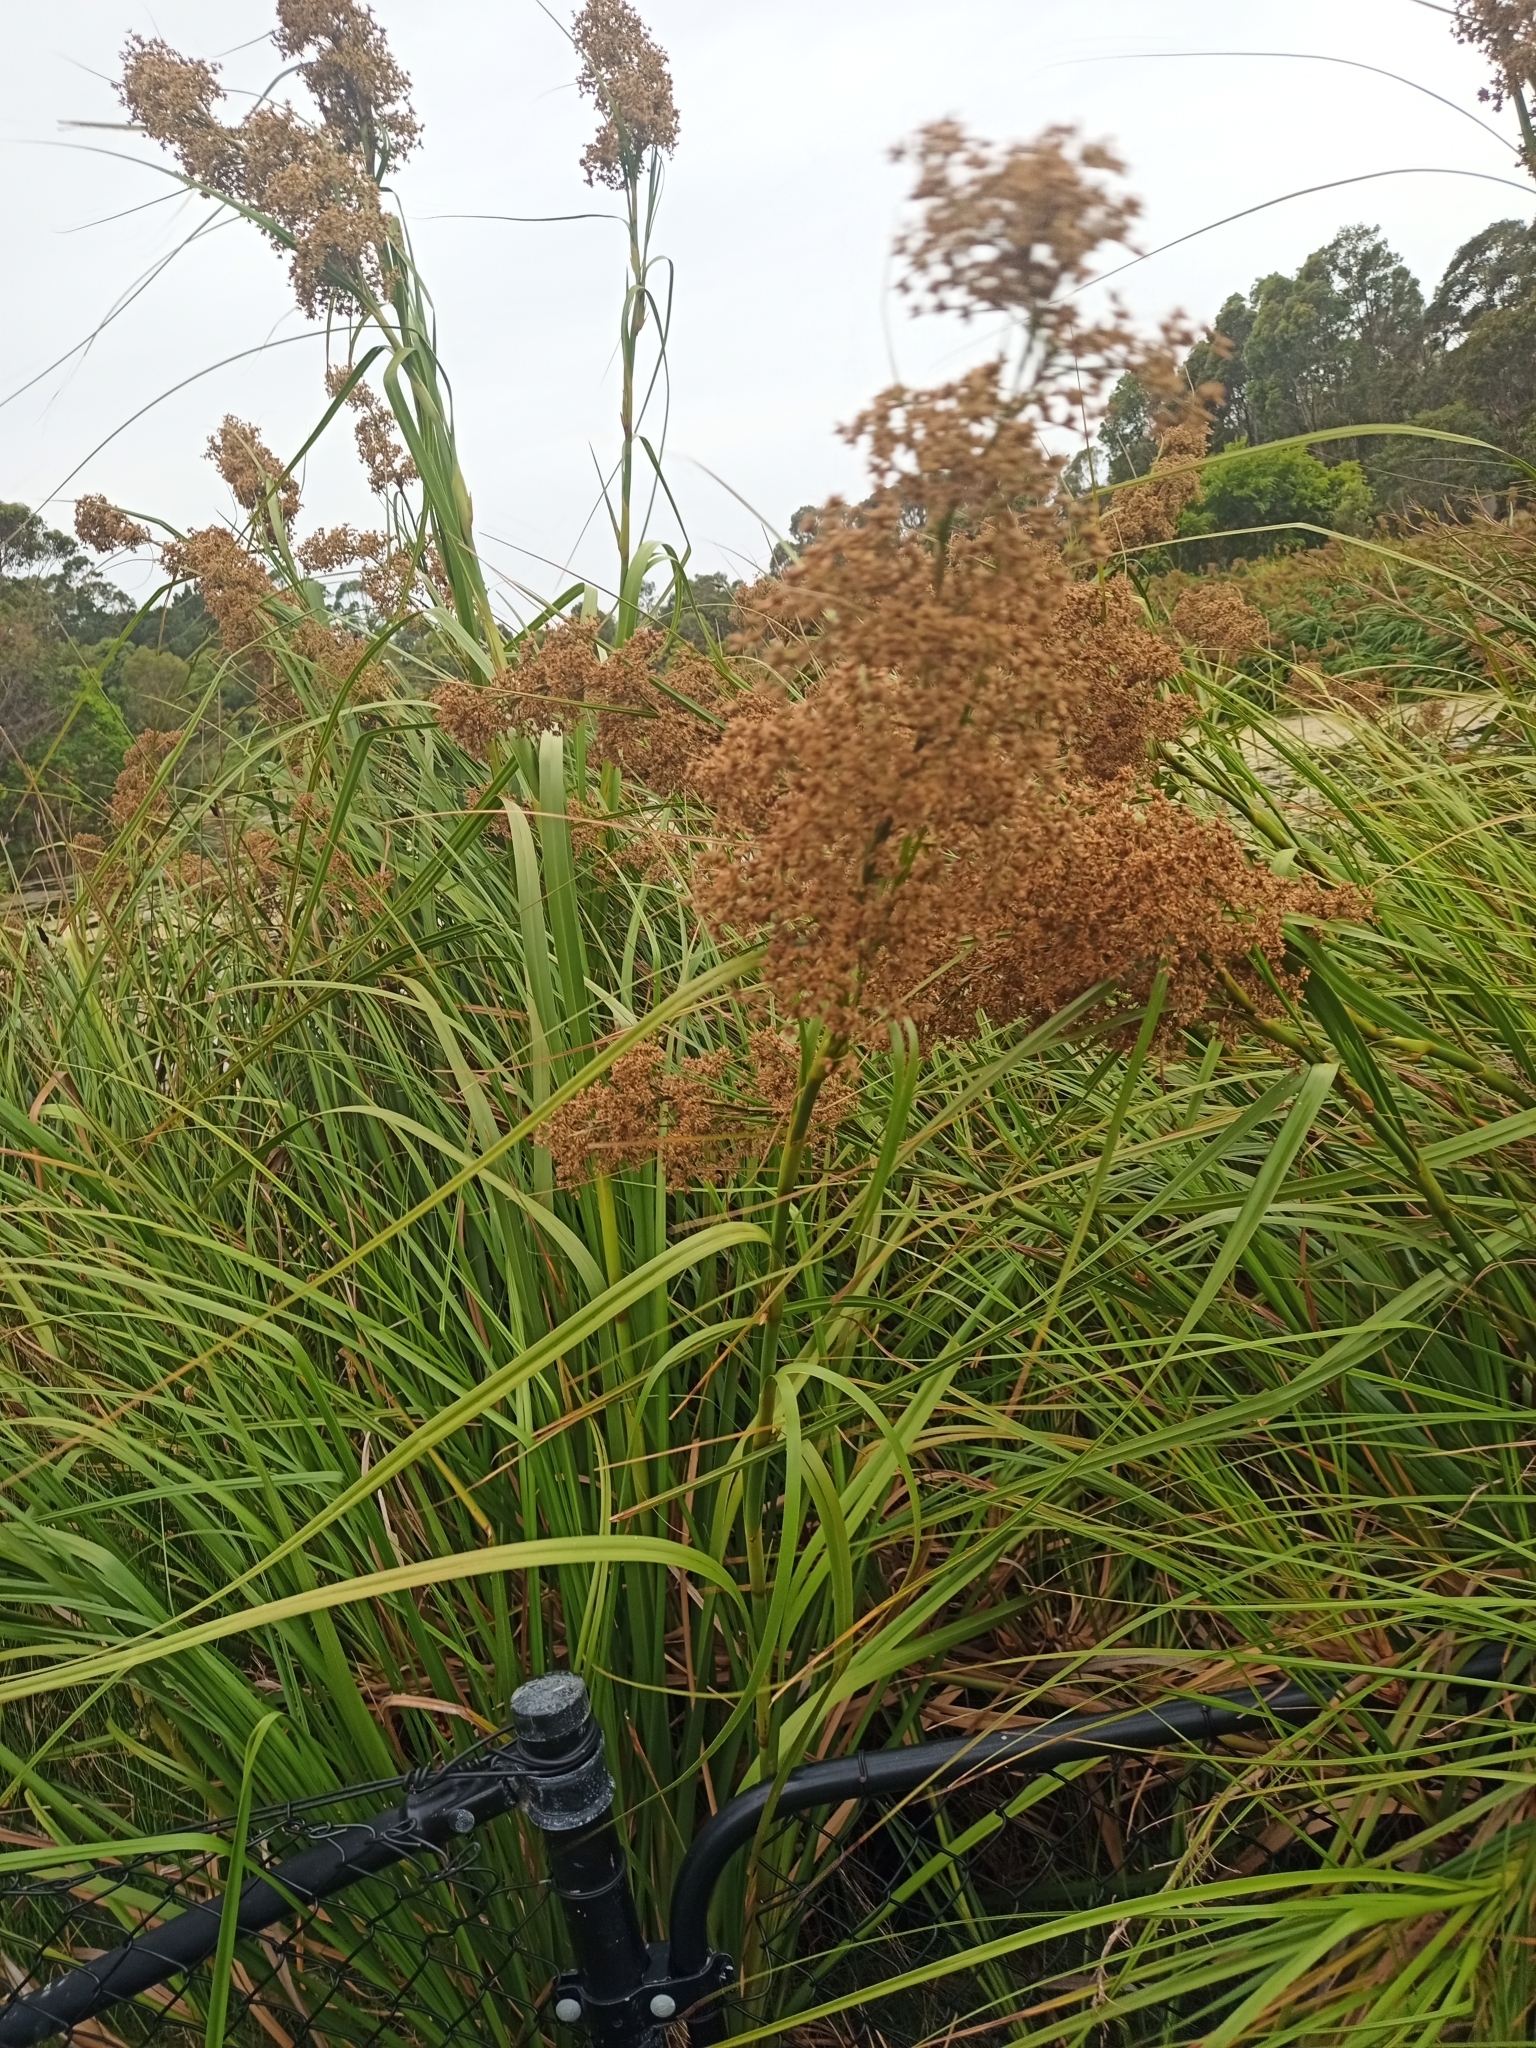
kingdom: Plantae
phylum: Tracheophyta
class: Liliopsida
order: Poales
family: Cyperaceae
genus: Cladium
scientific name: Cladium mariscus
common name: Great fen-sedge
